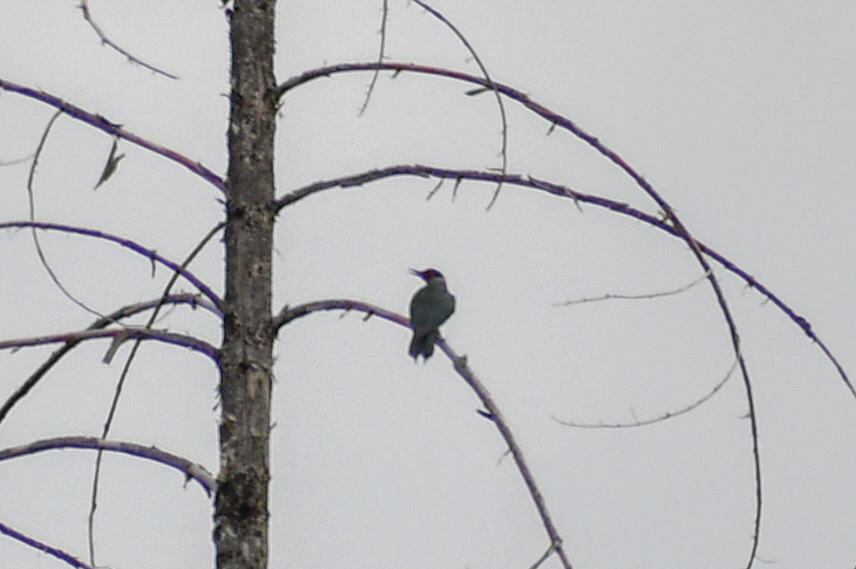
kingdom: Animalia
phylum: Chordata
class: Aves
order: Piciformes
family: Picidae
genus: Melanerpes
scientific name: Melanerpes lewis
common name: Lewis's woodpecker
